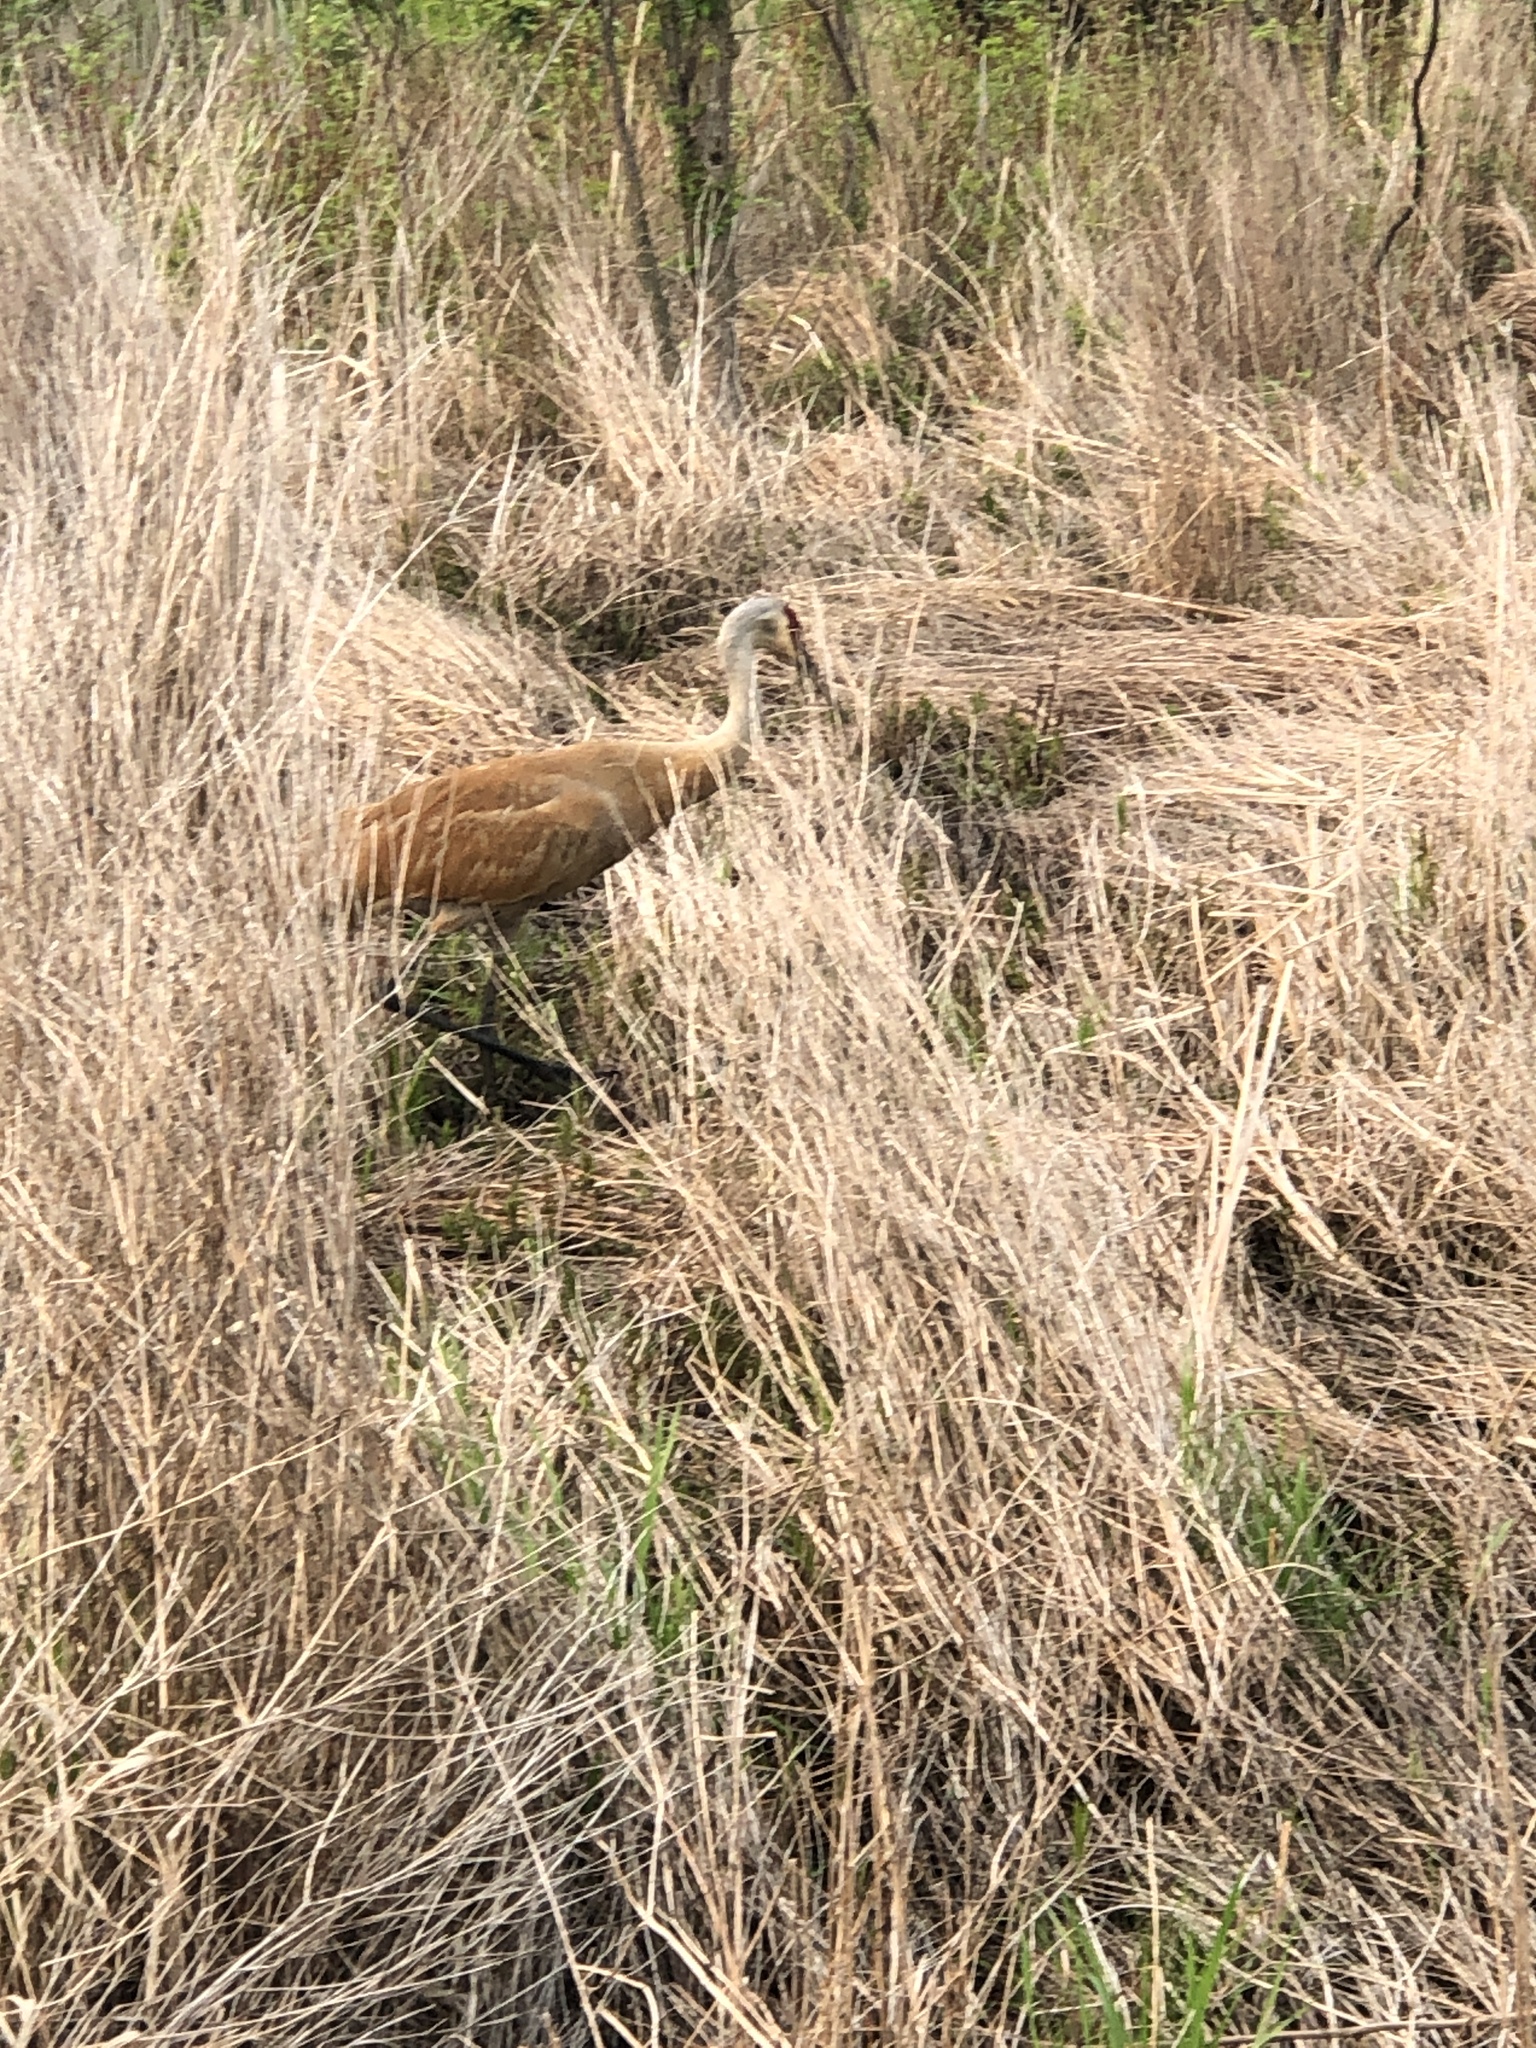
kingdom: Animalia
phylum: Chordata
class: Aves
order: Gruiformes
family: Gruidae
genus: Grus
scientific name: Grus canadensis
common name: Sandhill crane
